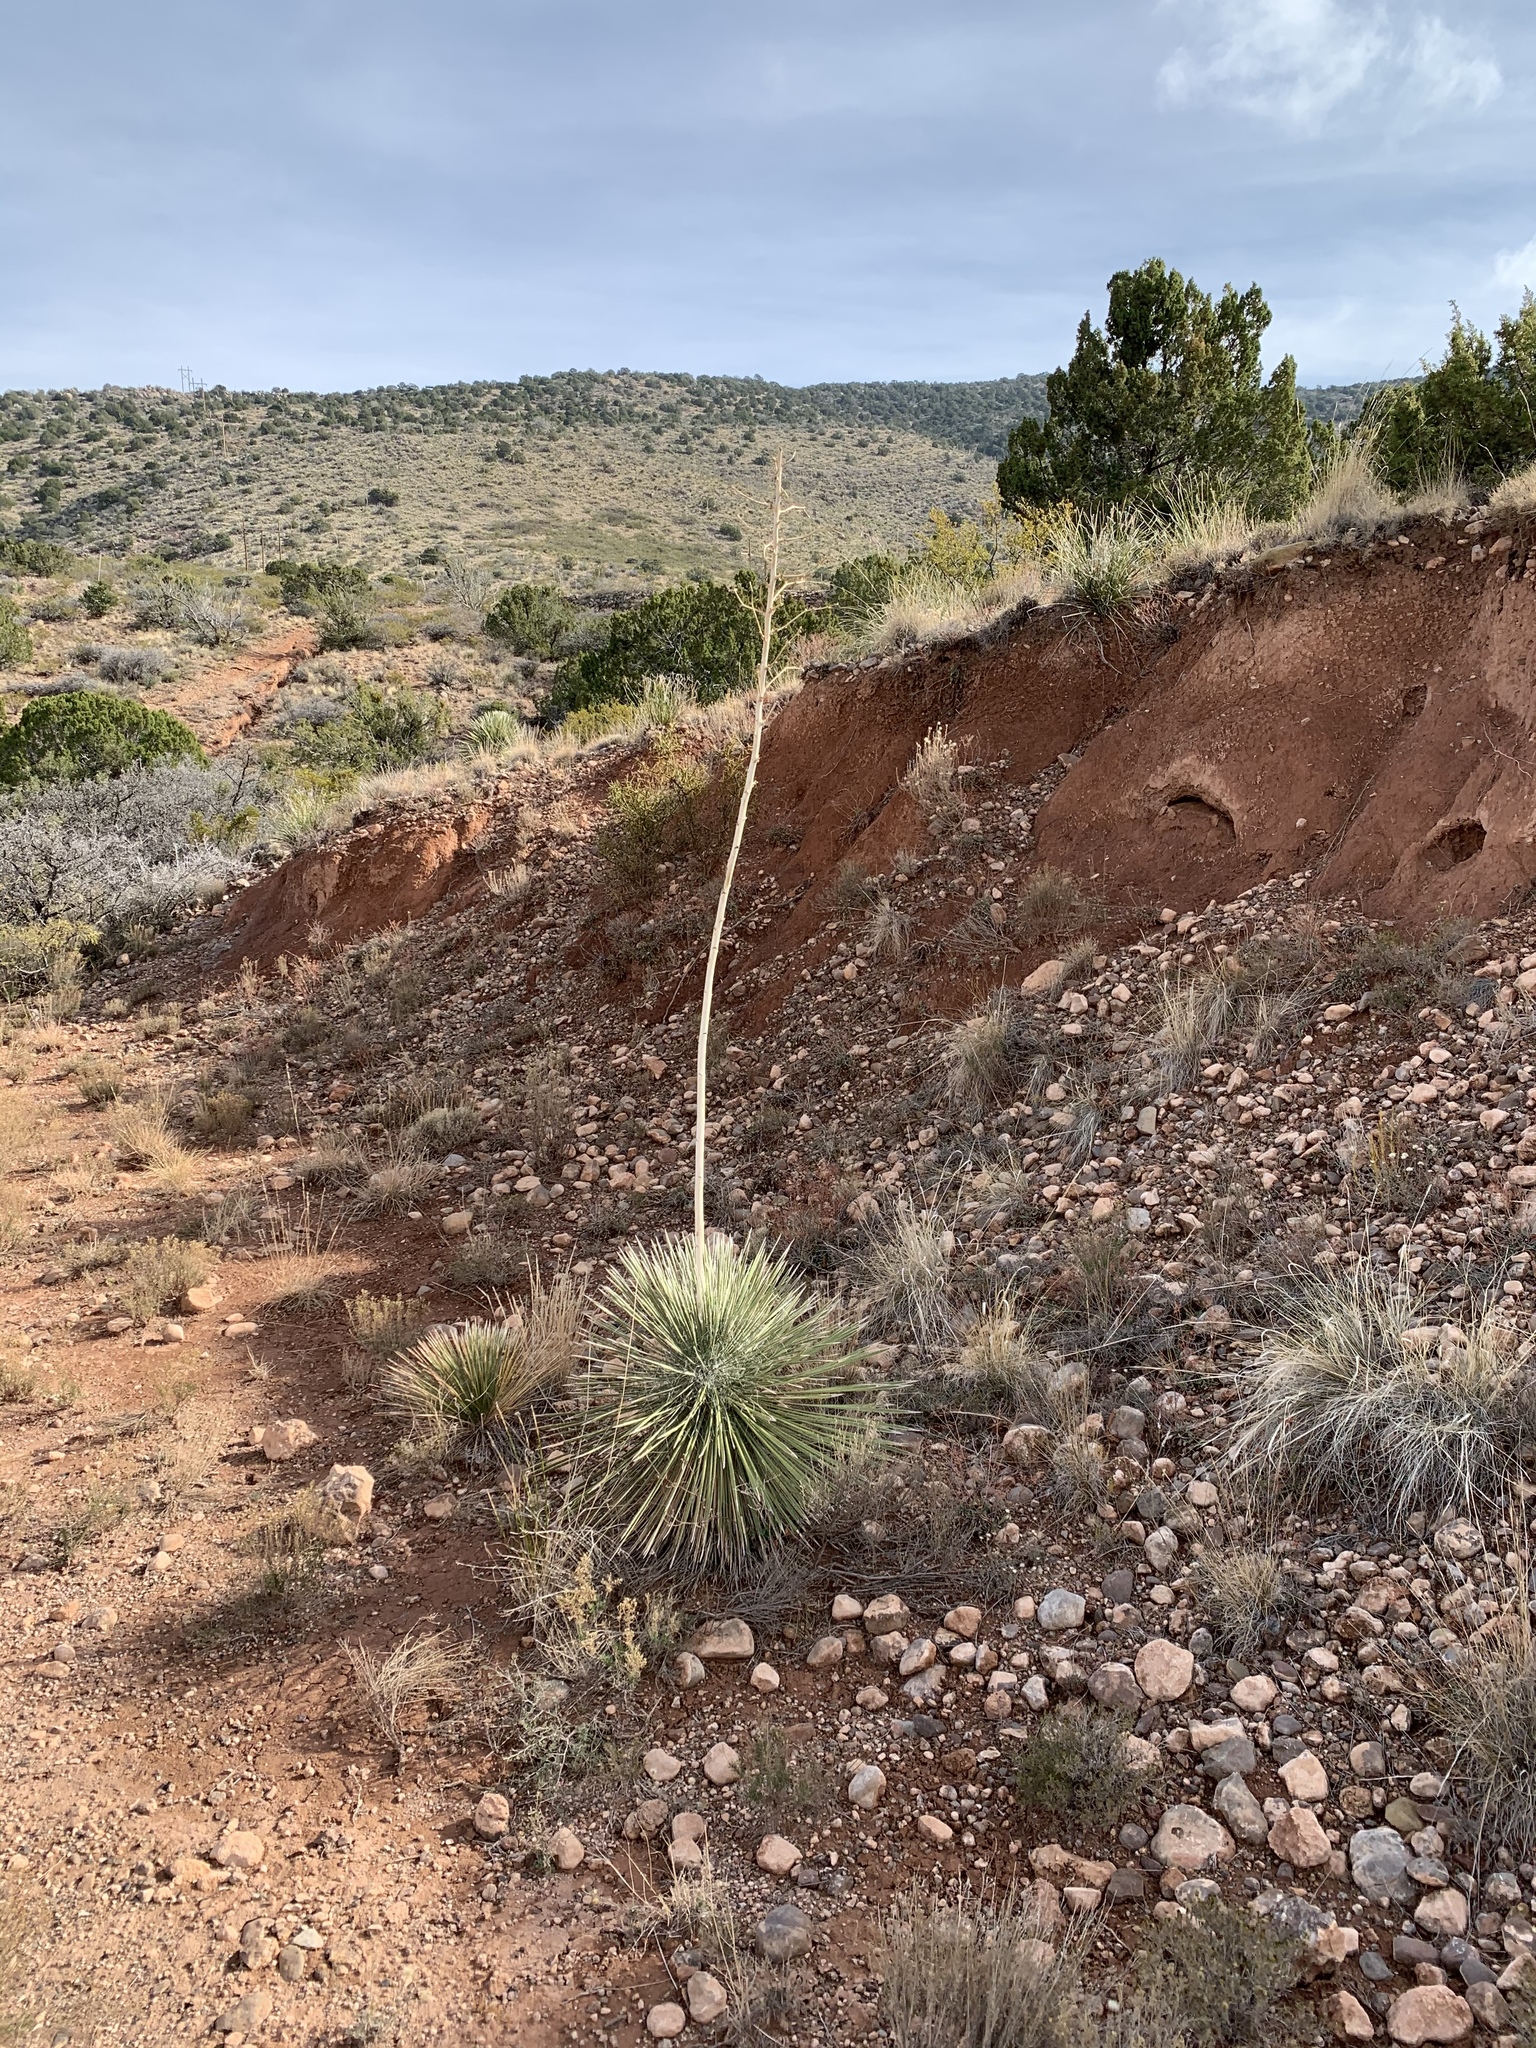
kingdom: Plantae
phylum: Tracheophyta
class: Liliopsida
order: Asparagales
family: Asparagaceae
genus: Yucca
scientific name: Yucca elata
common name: Palmella
